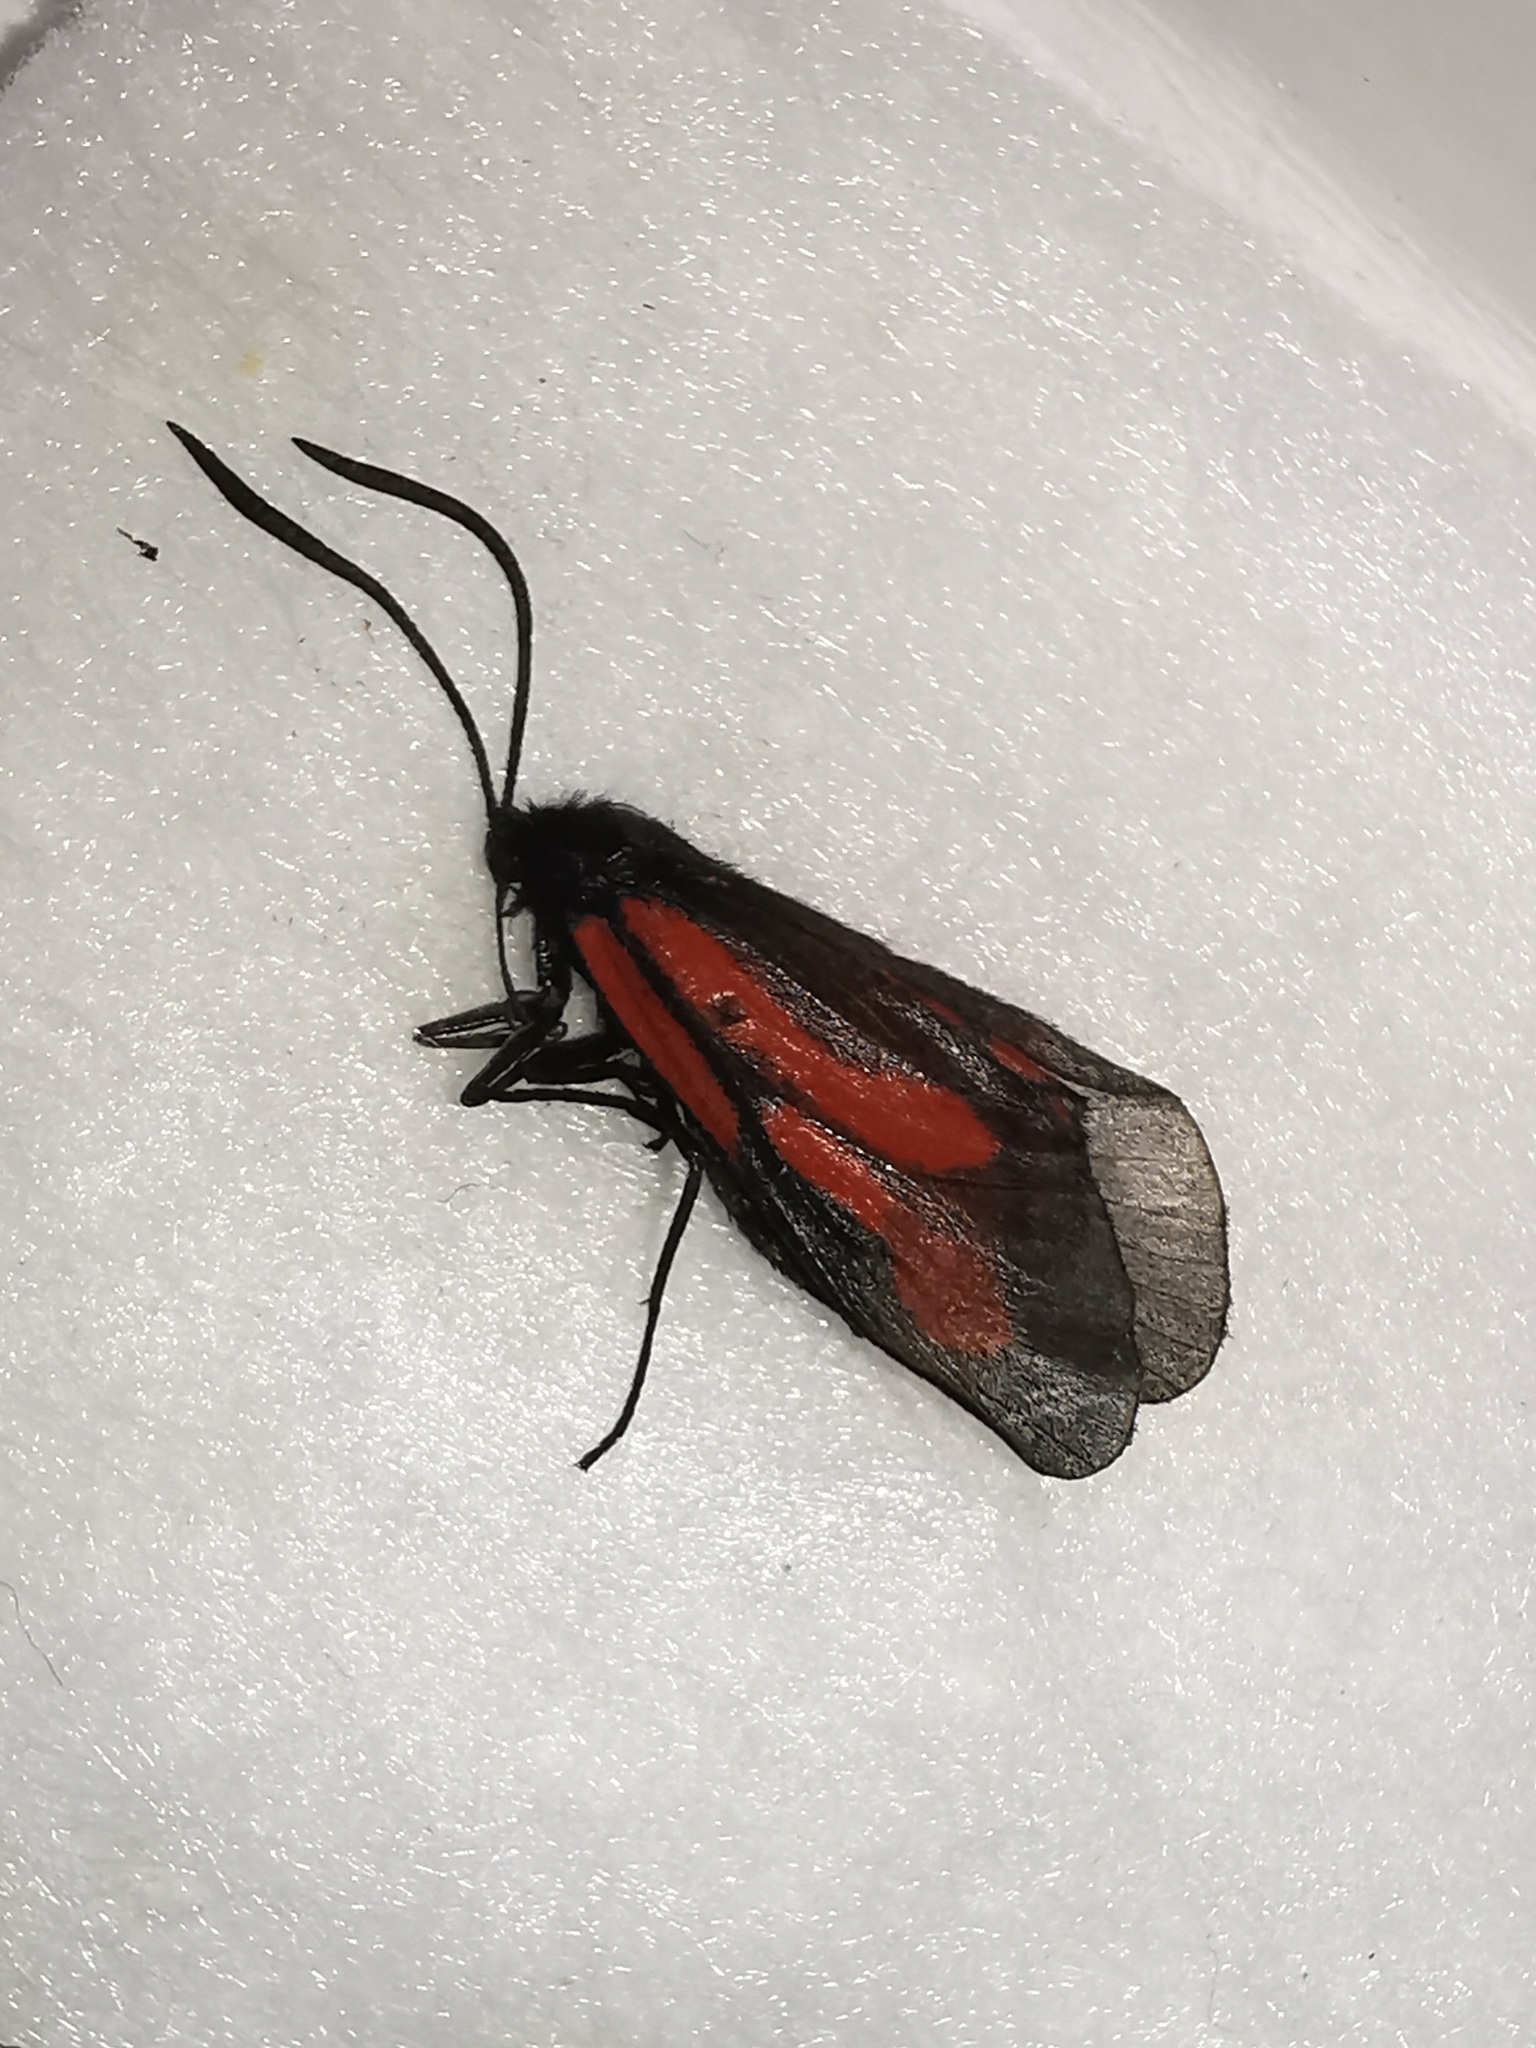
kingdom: Animalia
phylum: Arthropoda
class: Insecta
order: Lepidoptera
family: Zygaenidae
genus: Zygaena
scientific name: Zygaena osterodensis
